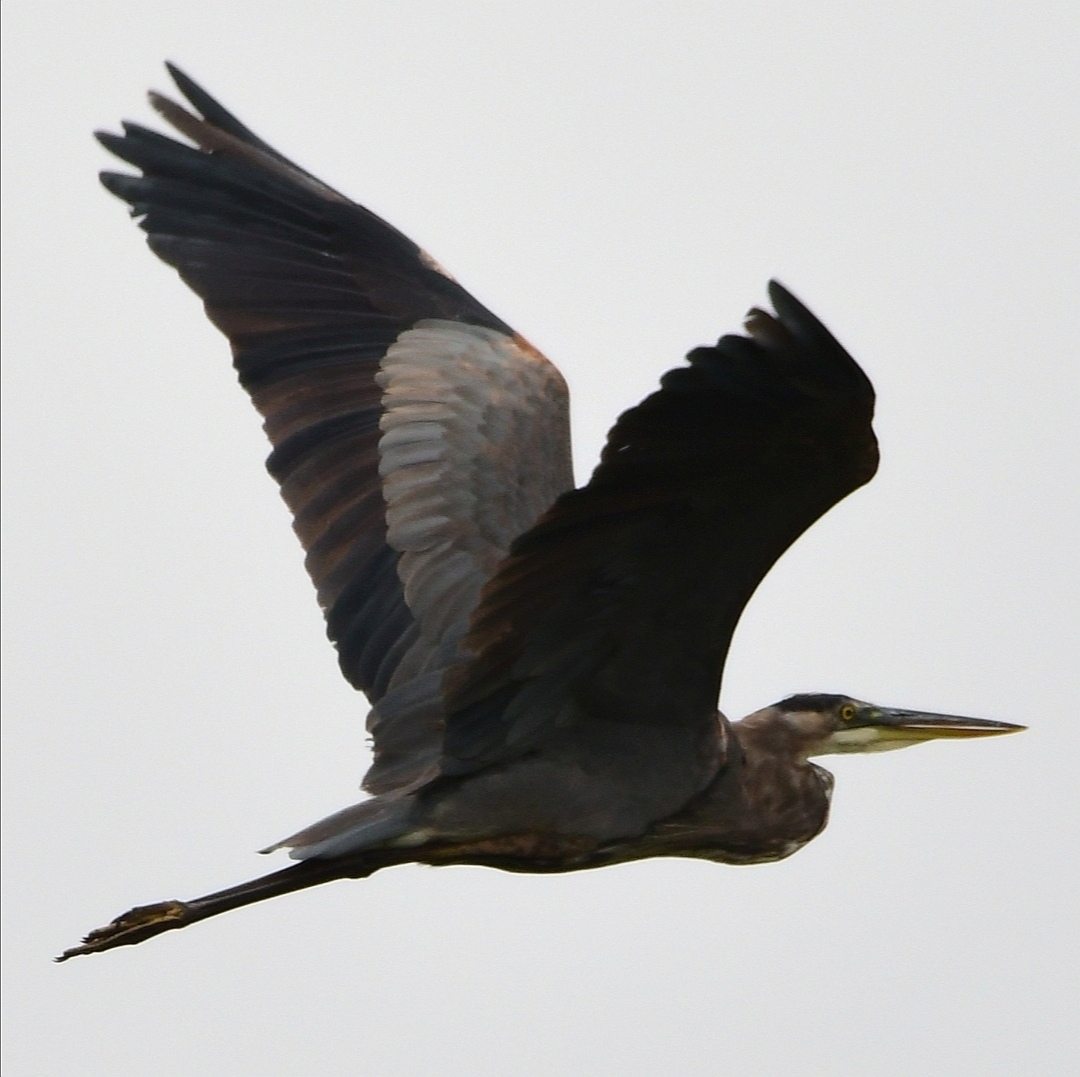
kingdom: Animalia
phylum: Chordata
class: Aves
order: Pelecaniformes
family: Ardeidae
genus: Ardea
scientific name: Ardea herodias
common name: Great blue heron
